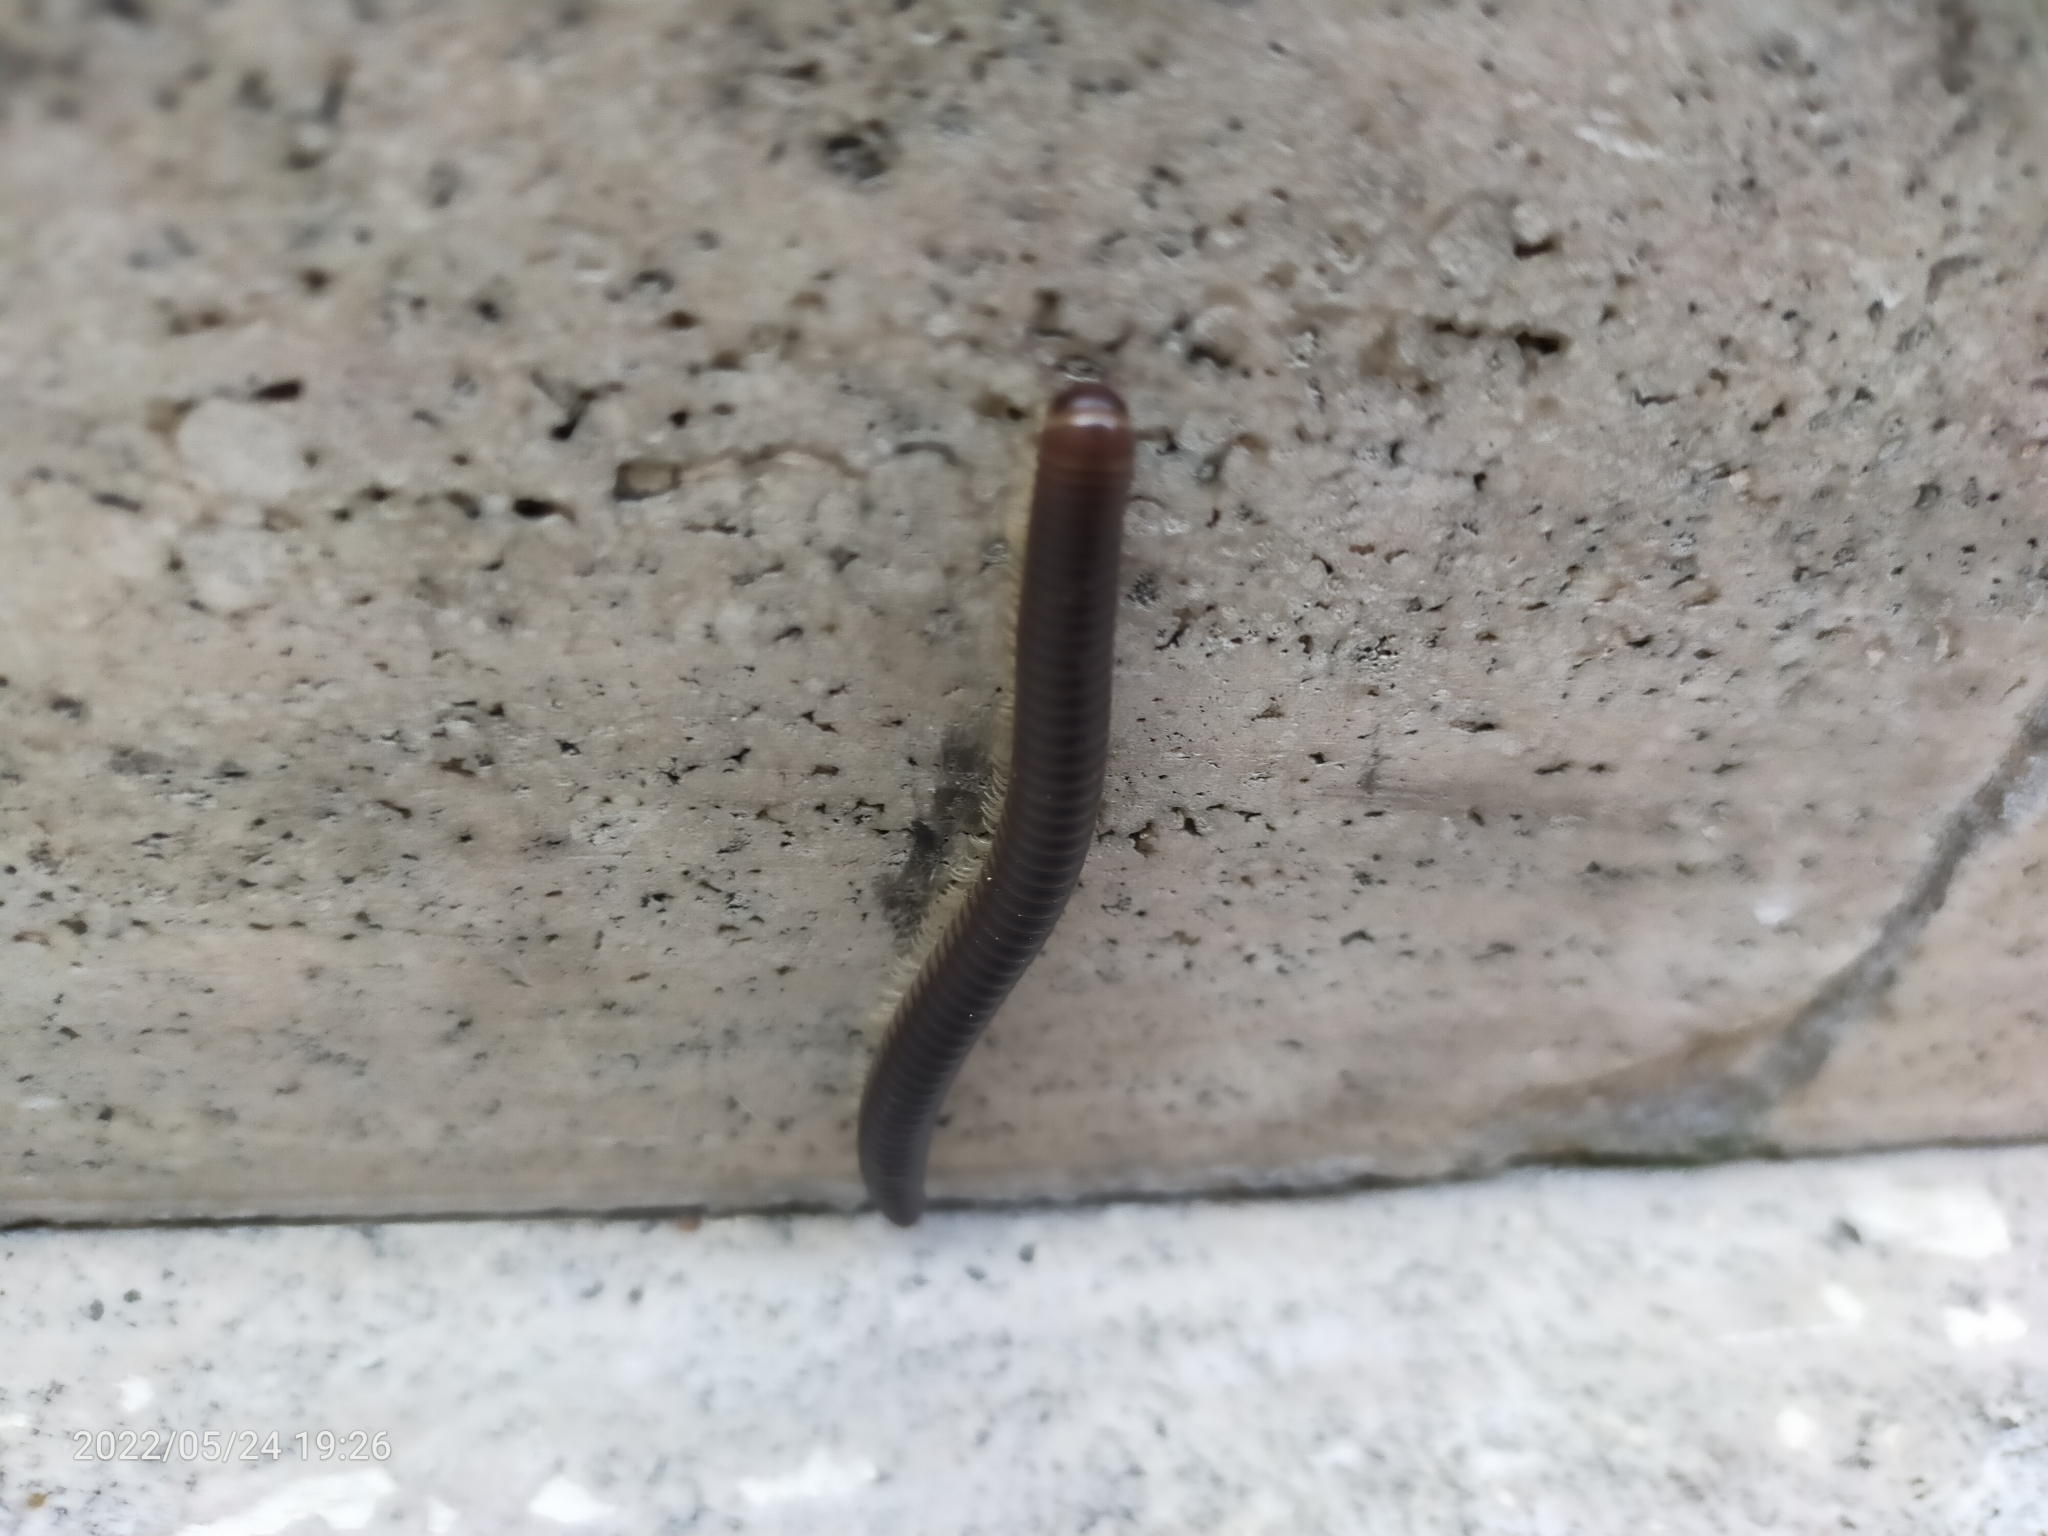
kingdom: Animalia
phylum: Arthropoda
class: Diplopoda
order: Julida
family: Julidae
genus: Pachyiulus
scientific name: Pachyiulus flavipes
